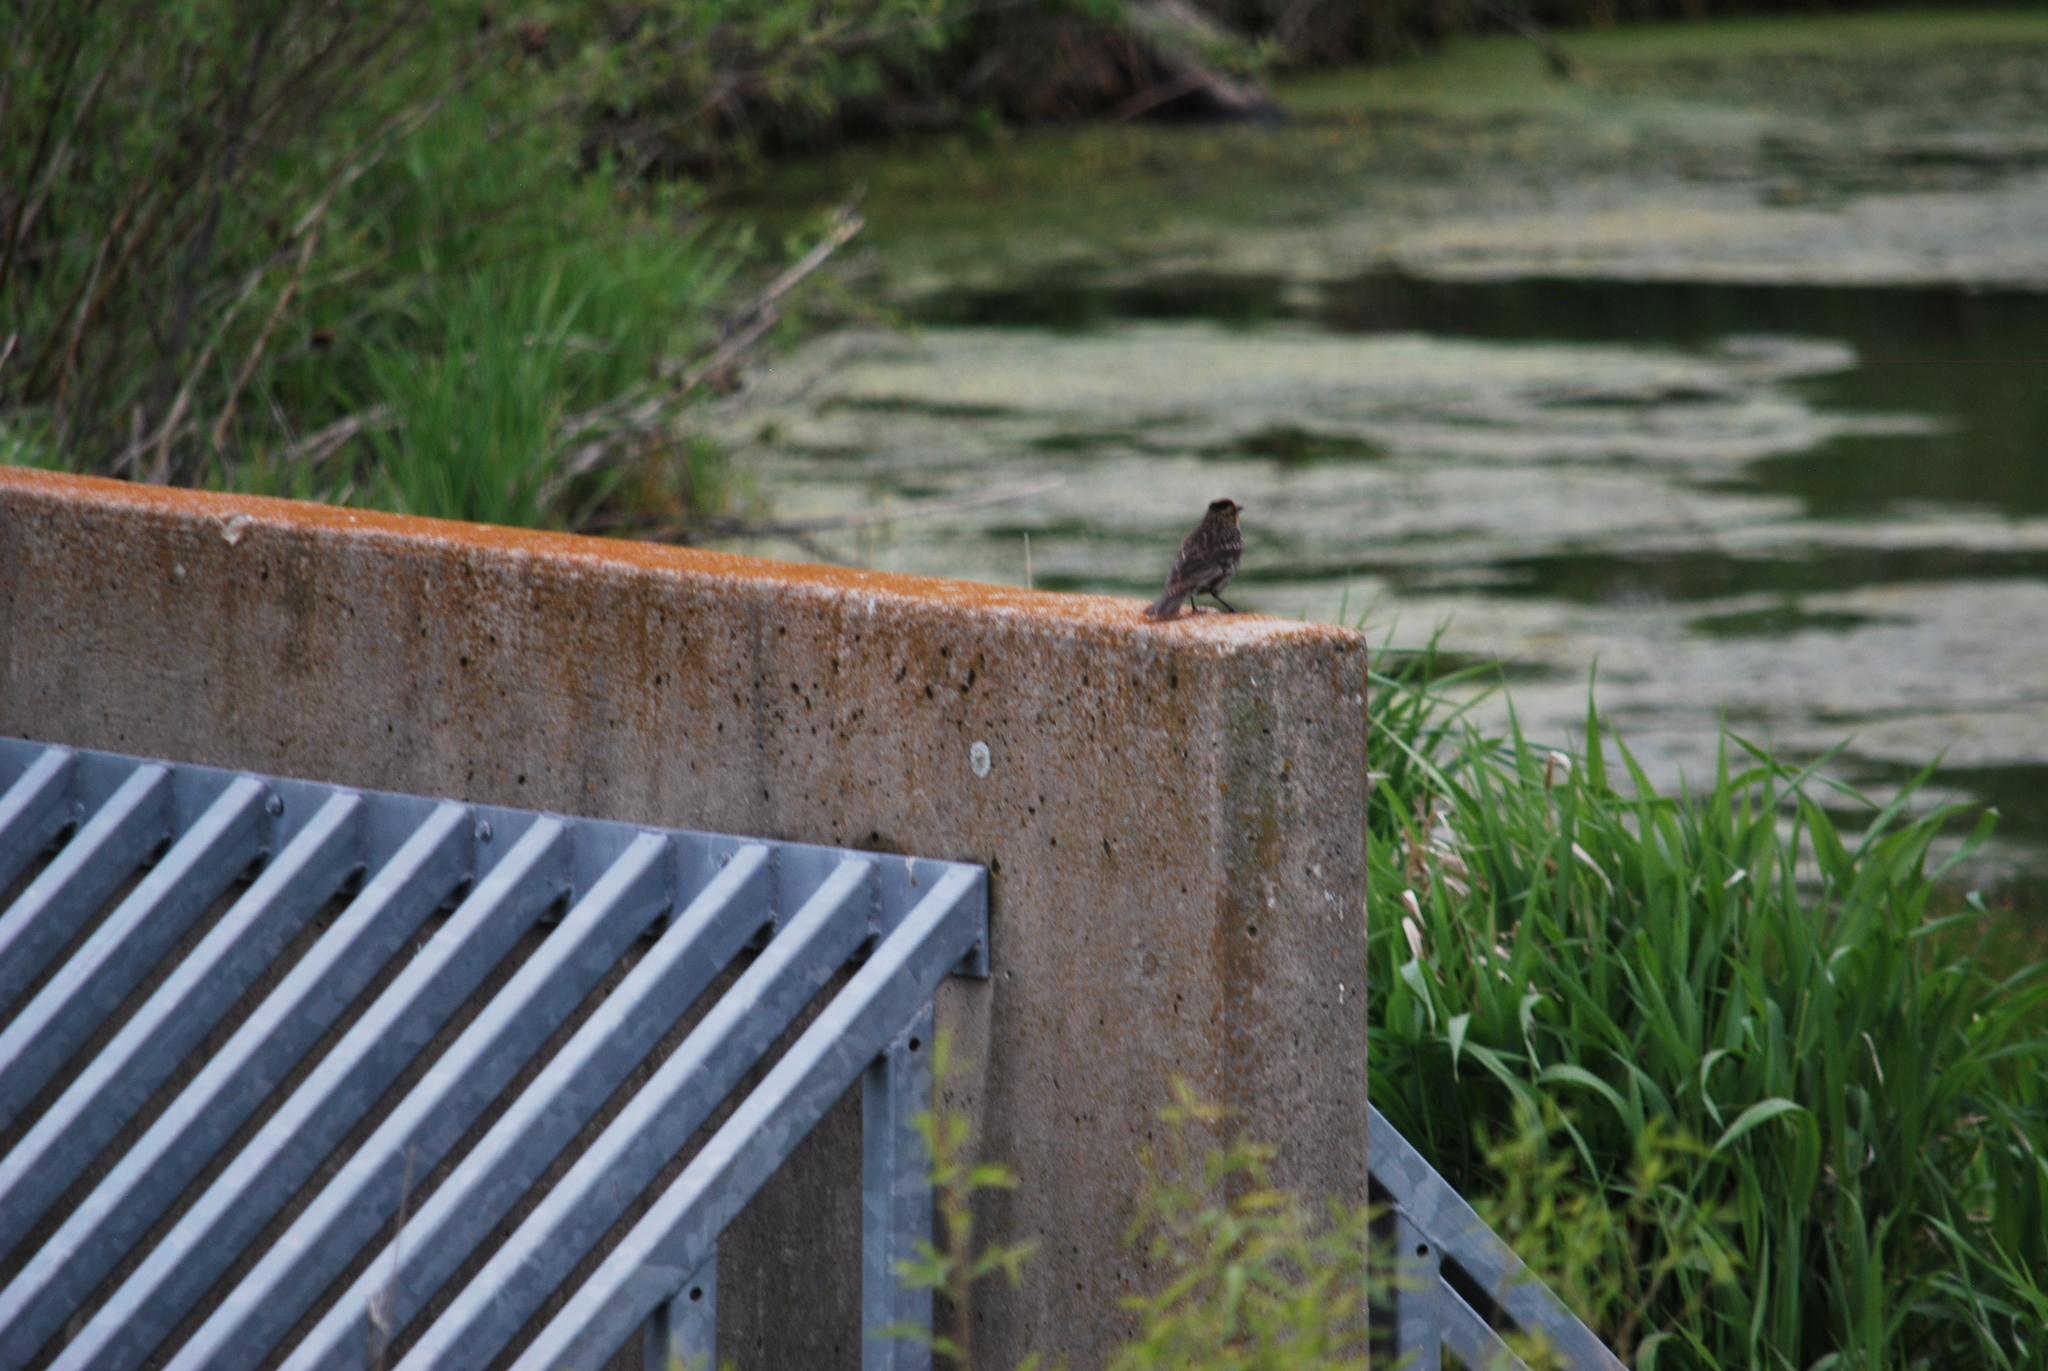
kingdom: Animalia
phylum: Chordata
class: Aves
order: Passeriformes
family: Icteridae
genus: Agelaius
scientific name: Agelaius phoeniceus
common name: Red-winged blackbird
